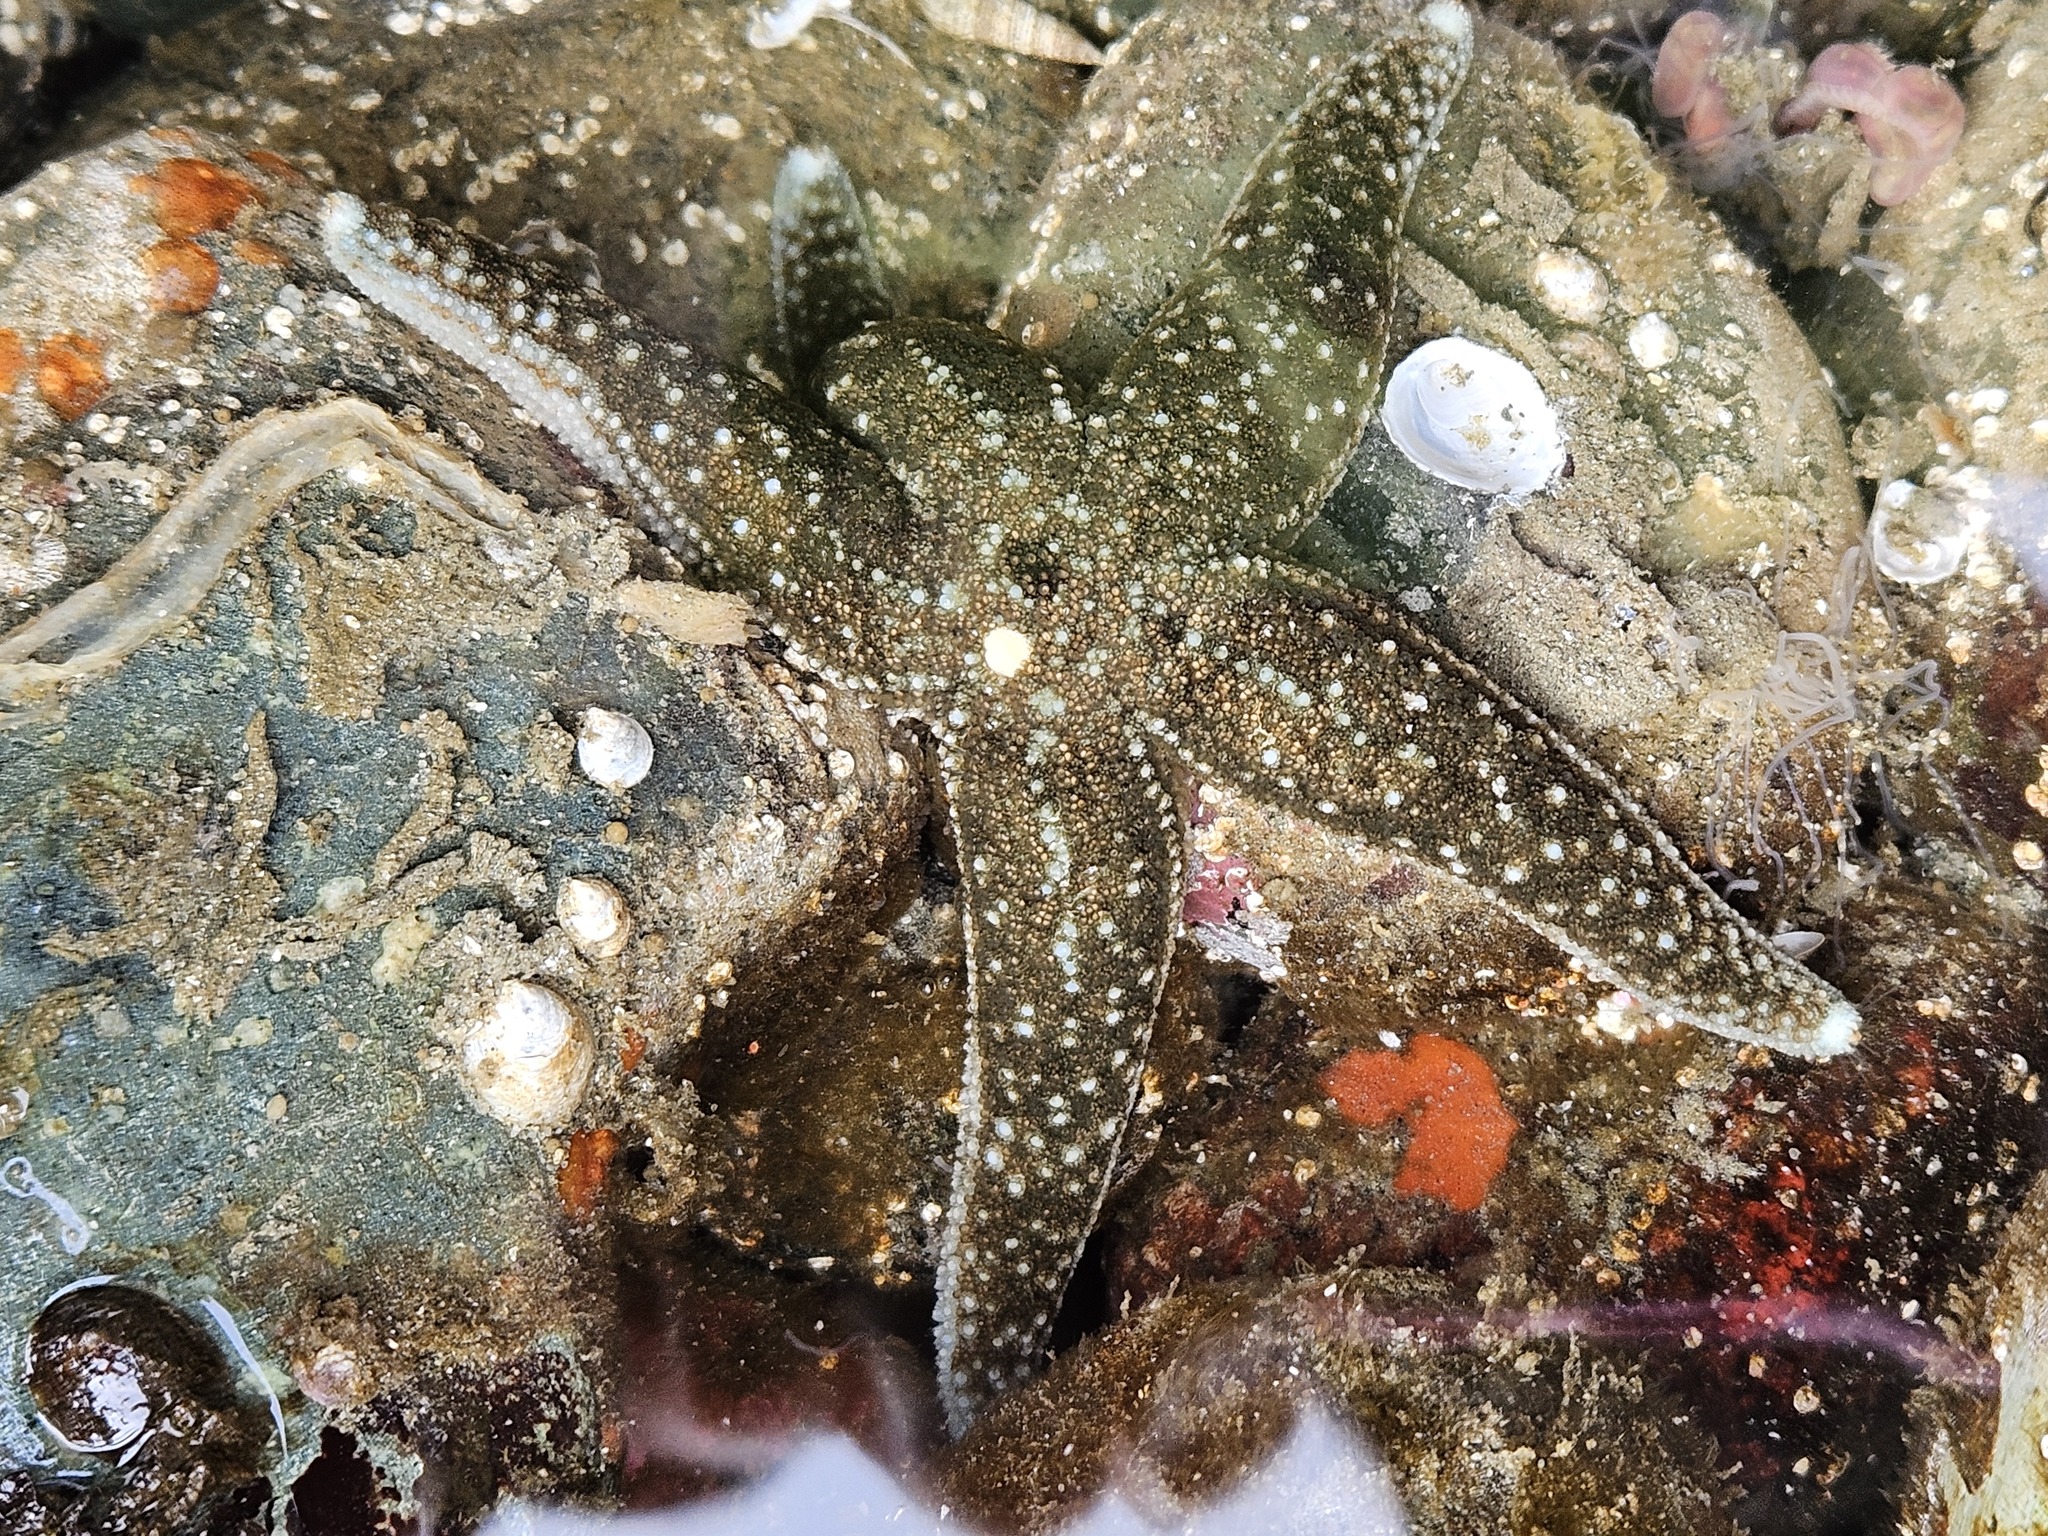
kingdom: Animalia
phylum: Echinodermata
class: Asteroidea
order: Forcipulatida
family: Asteriidae
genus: Evasterias
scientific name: Evasterias troschelii
